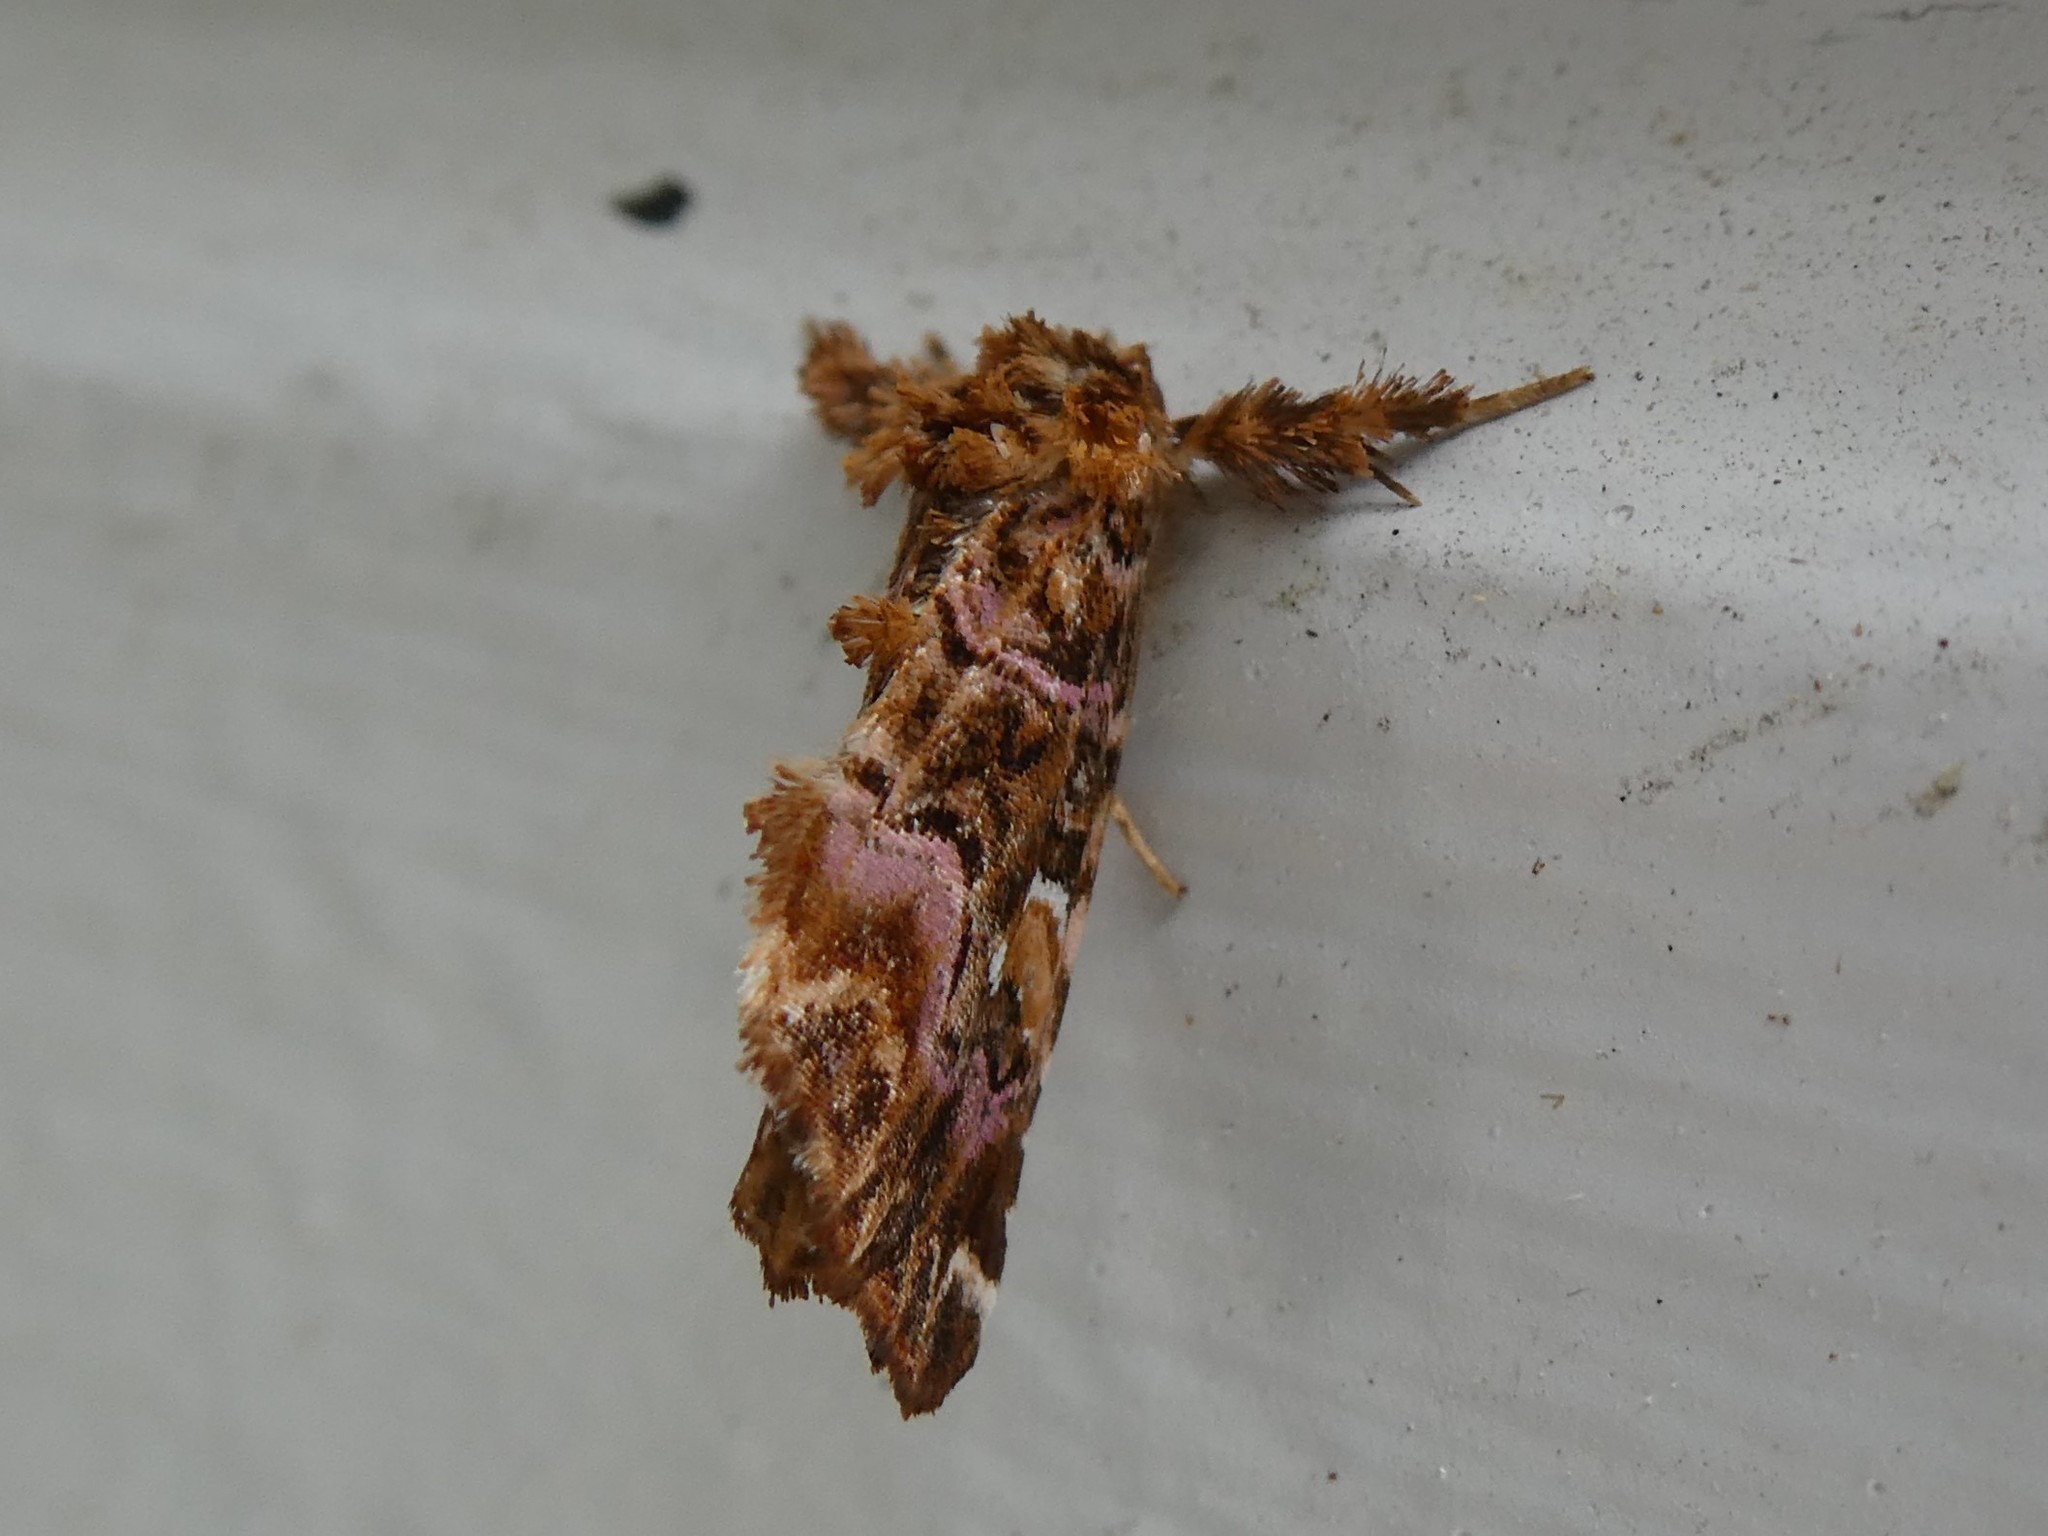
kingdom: Animalia
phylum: Arthropoda
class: Insecta
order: Lepidoptera
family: Noctuidae
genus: Callopistria
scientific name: Callopistria mollissima
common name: Pink-shaded fern moth
